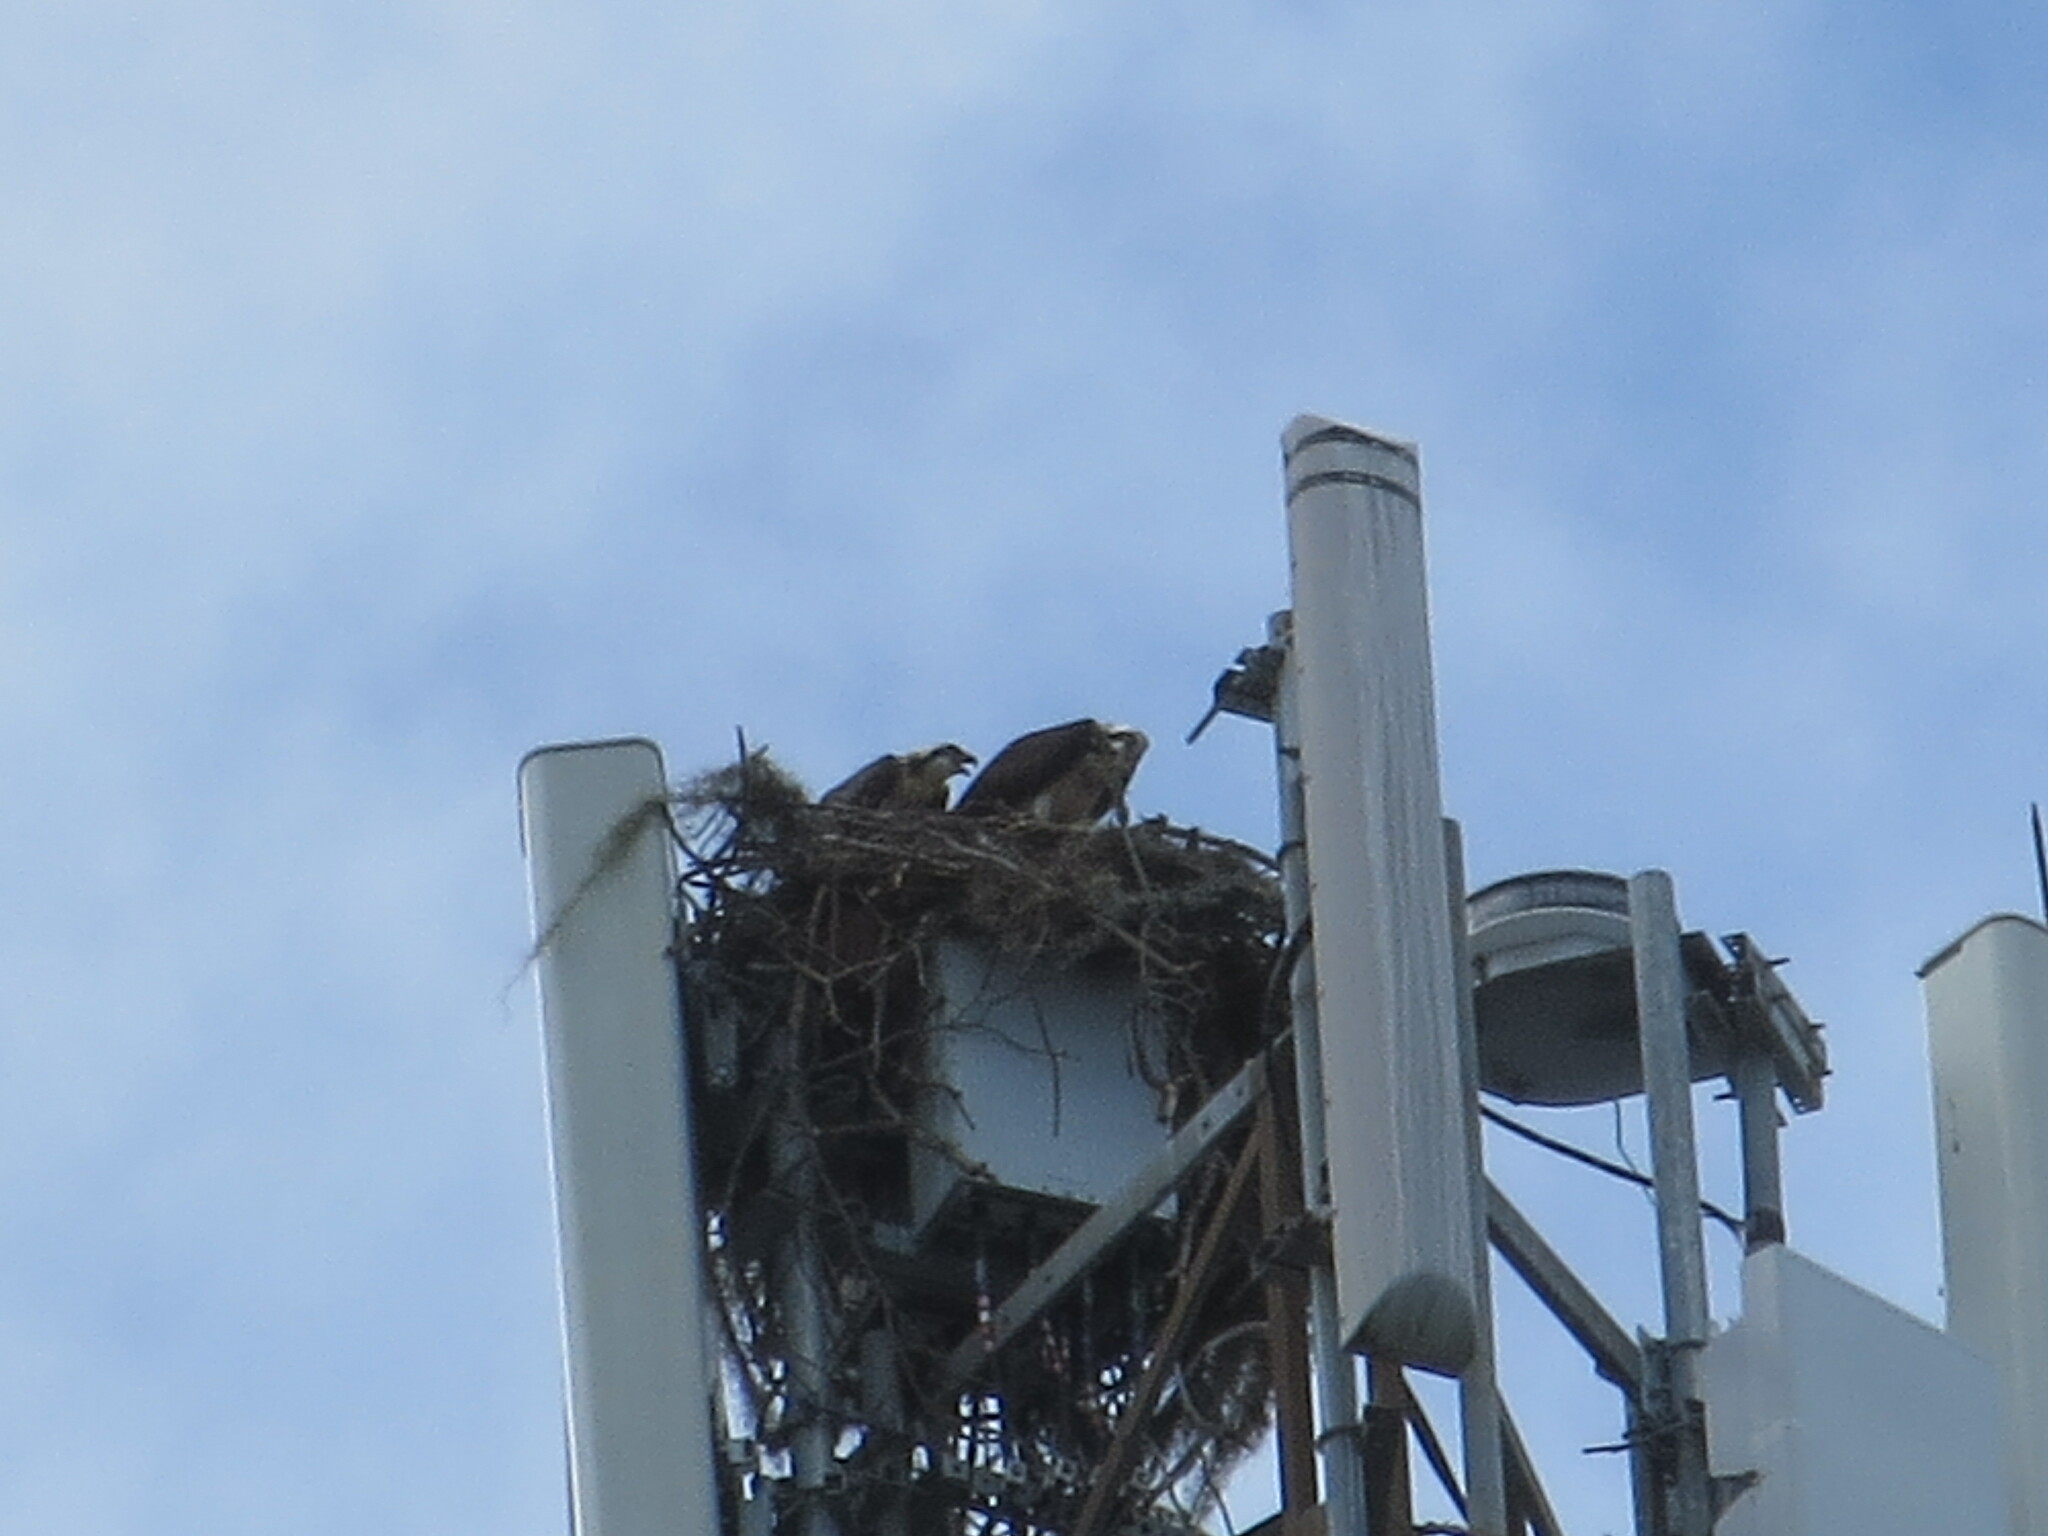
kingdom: Animalia
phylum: Chordata
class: Aves
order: Accipitriformes
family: Pandionidae
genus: Pandion
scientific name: Pandion haliaetus
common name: Osprey
